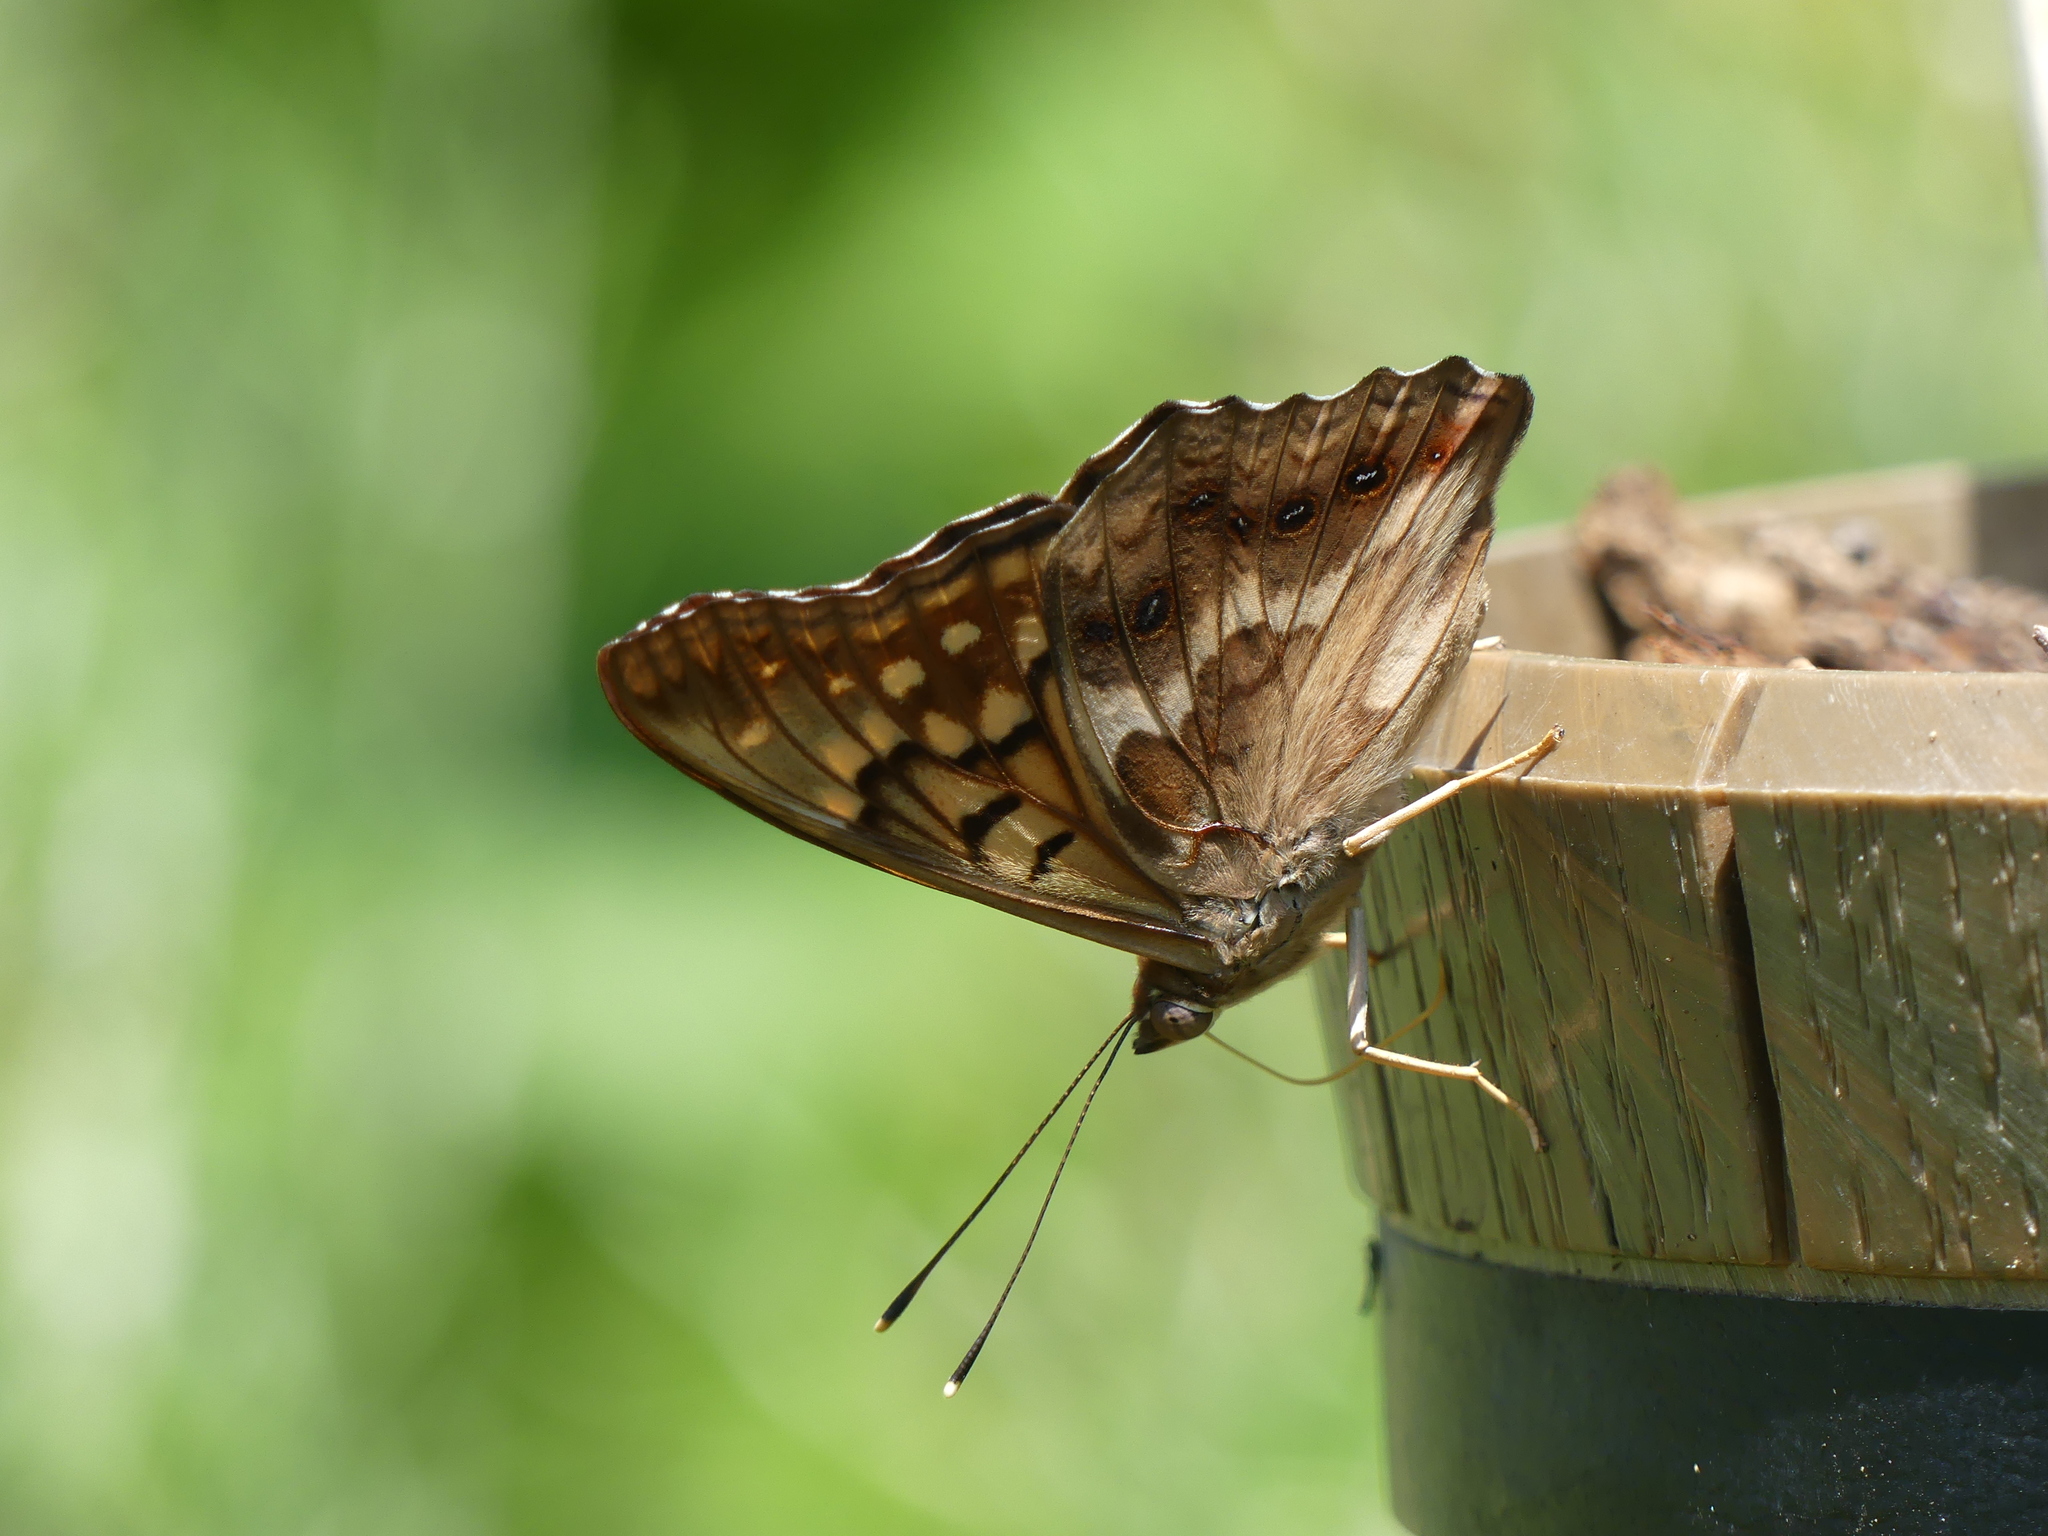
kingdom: Animalia
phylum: Arthropoda
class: Insecta
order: Lepidoptera
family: Nymphalidae
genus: Asterocampa
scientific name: Asterocampa celtis
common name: Hackberry emperor
